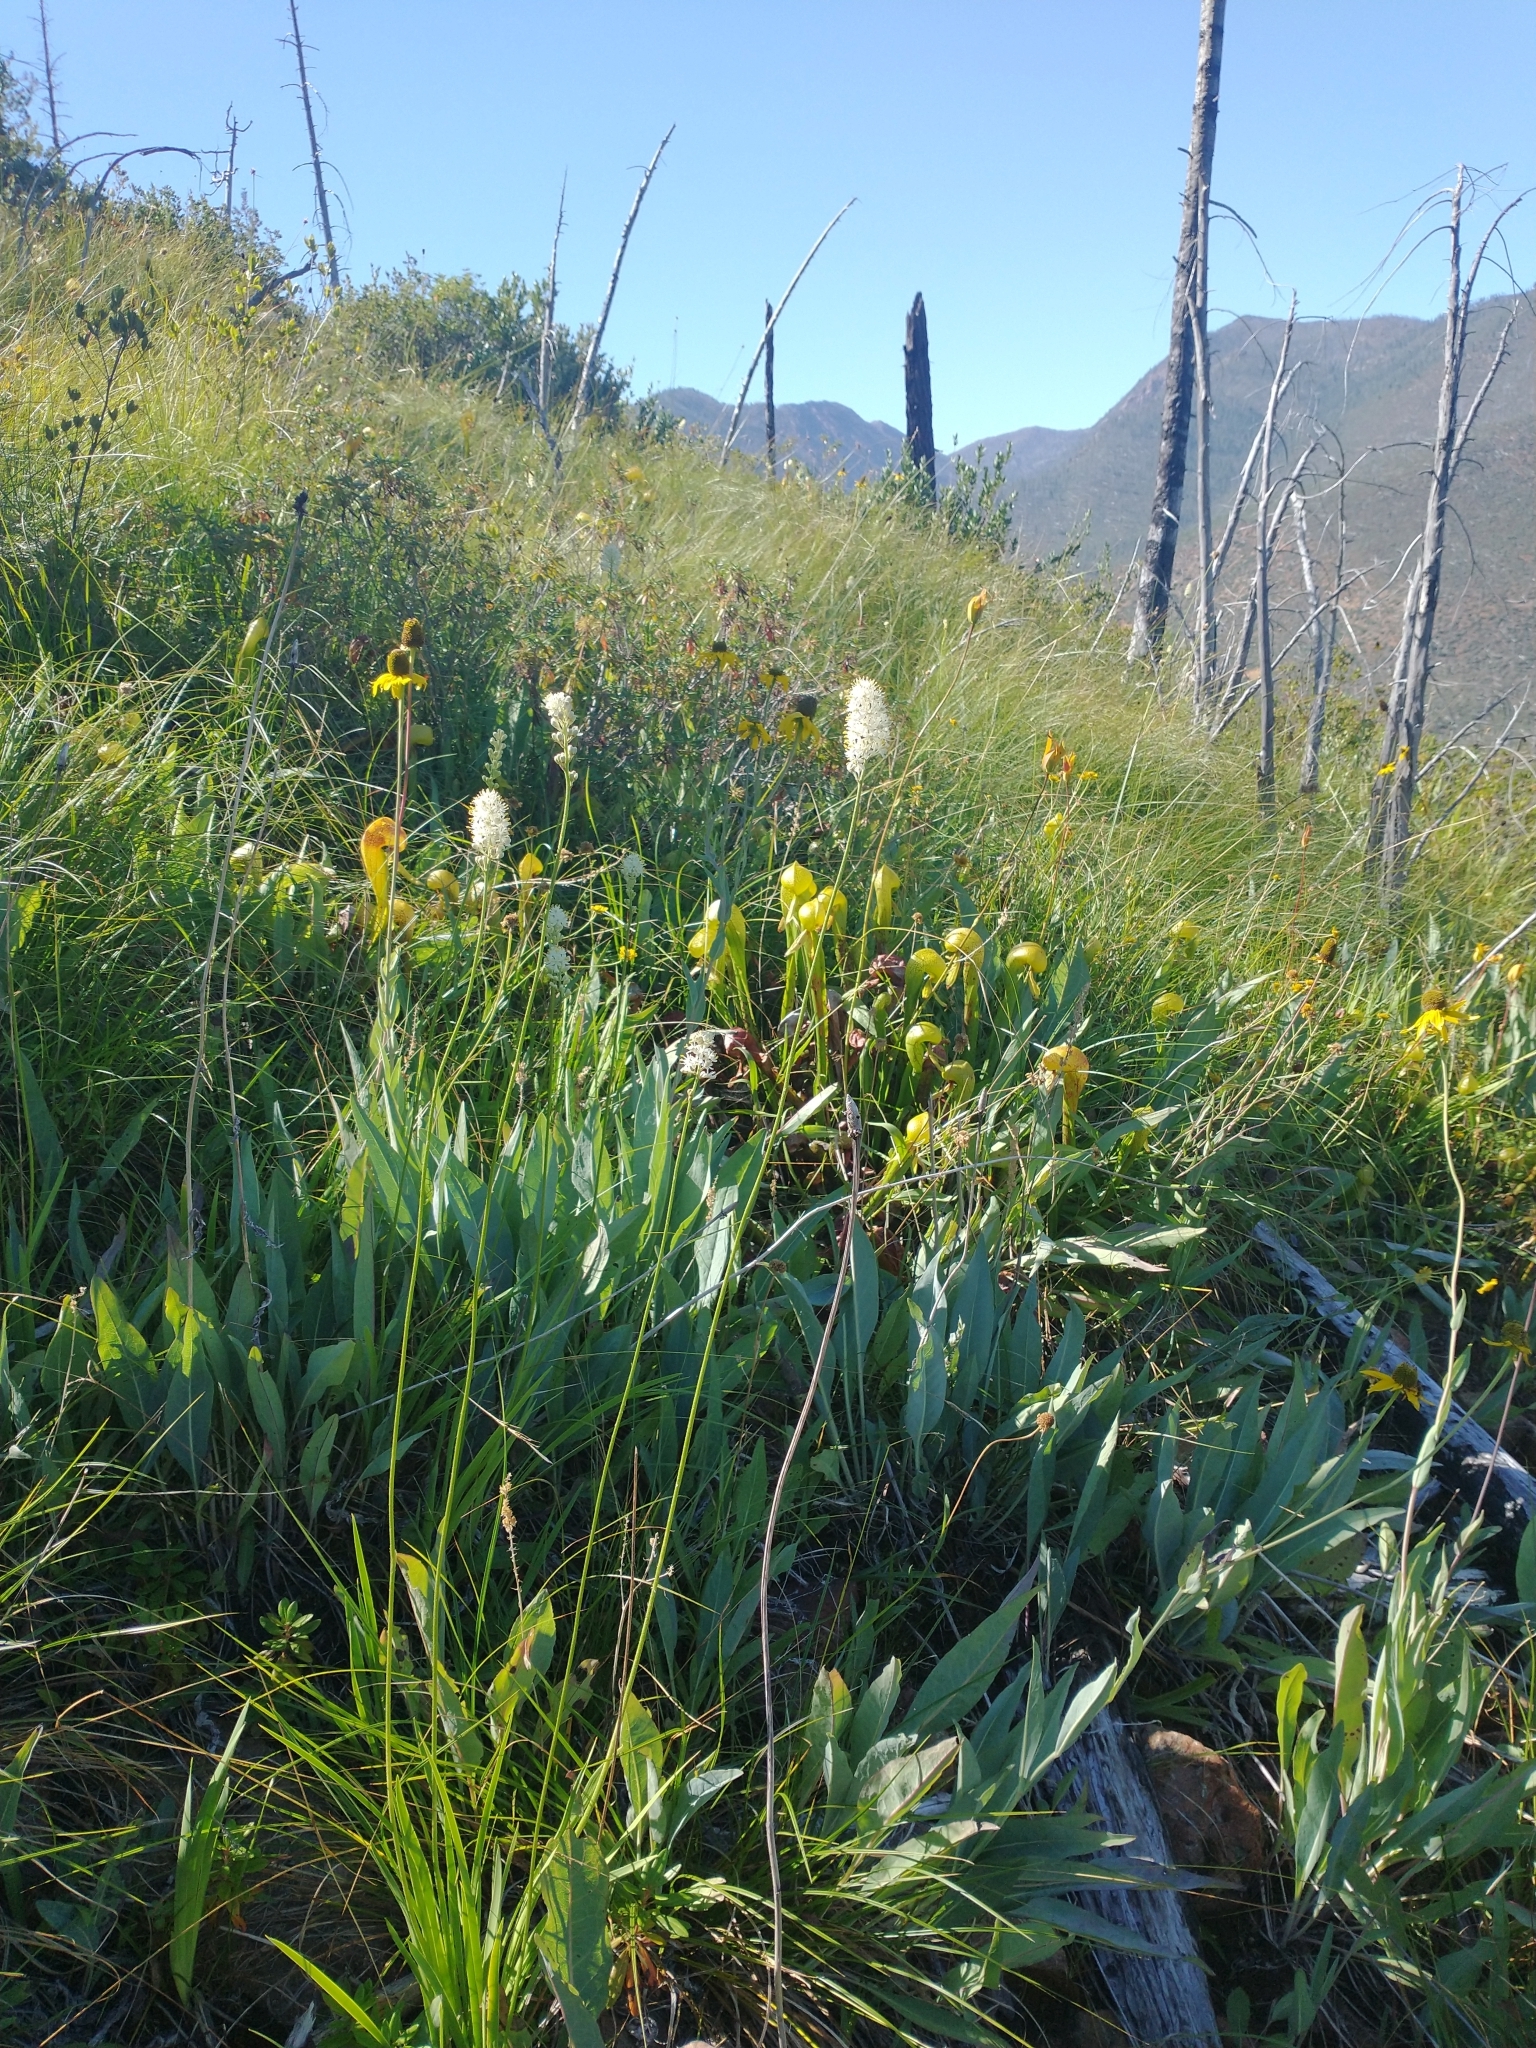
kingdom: Plantae
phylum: Tracheophyta
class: Magnoliopsida
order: Asterales
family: Asteraceae
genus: Rudbeckia
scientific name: Rudbeckia glaucescens
